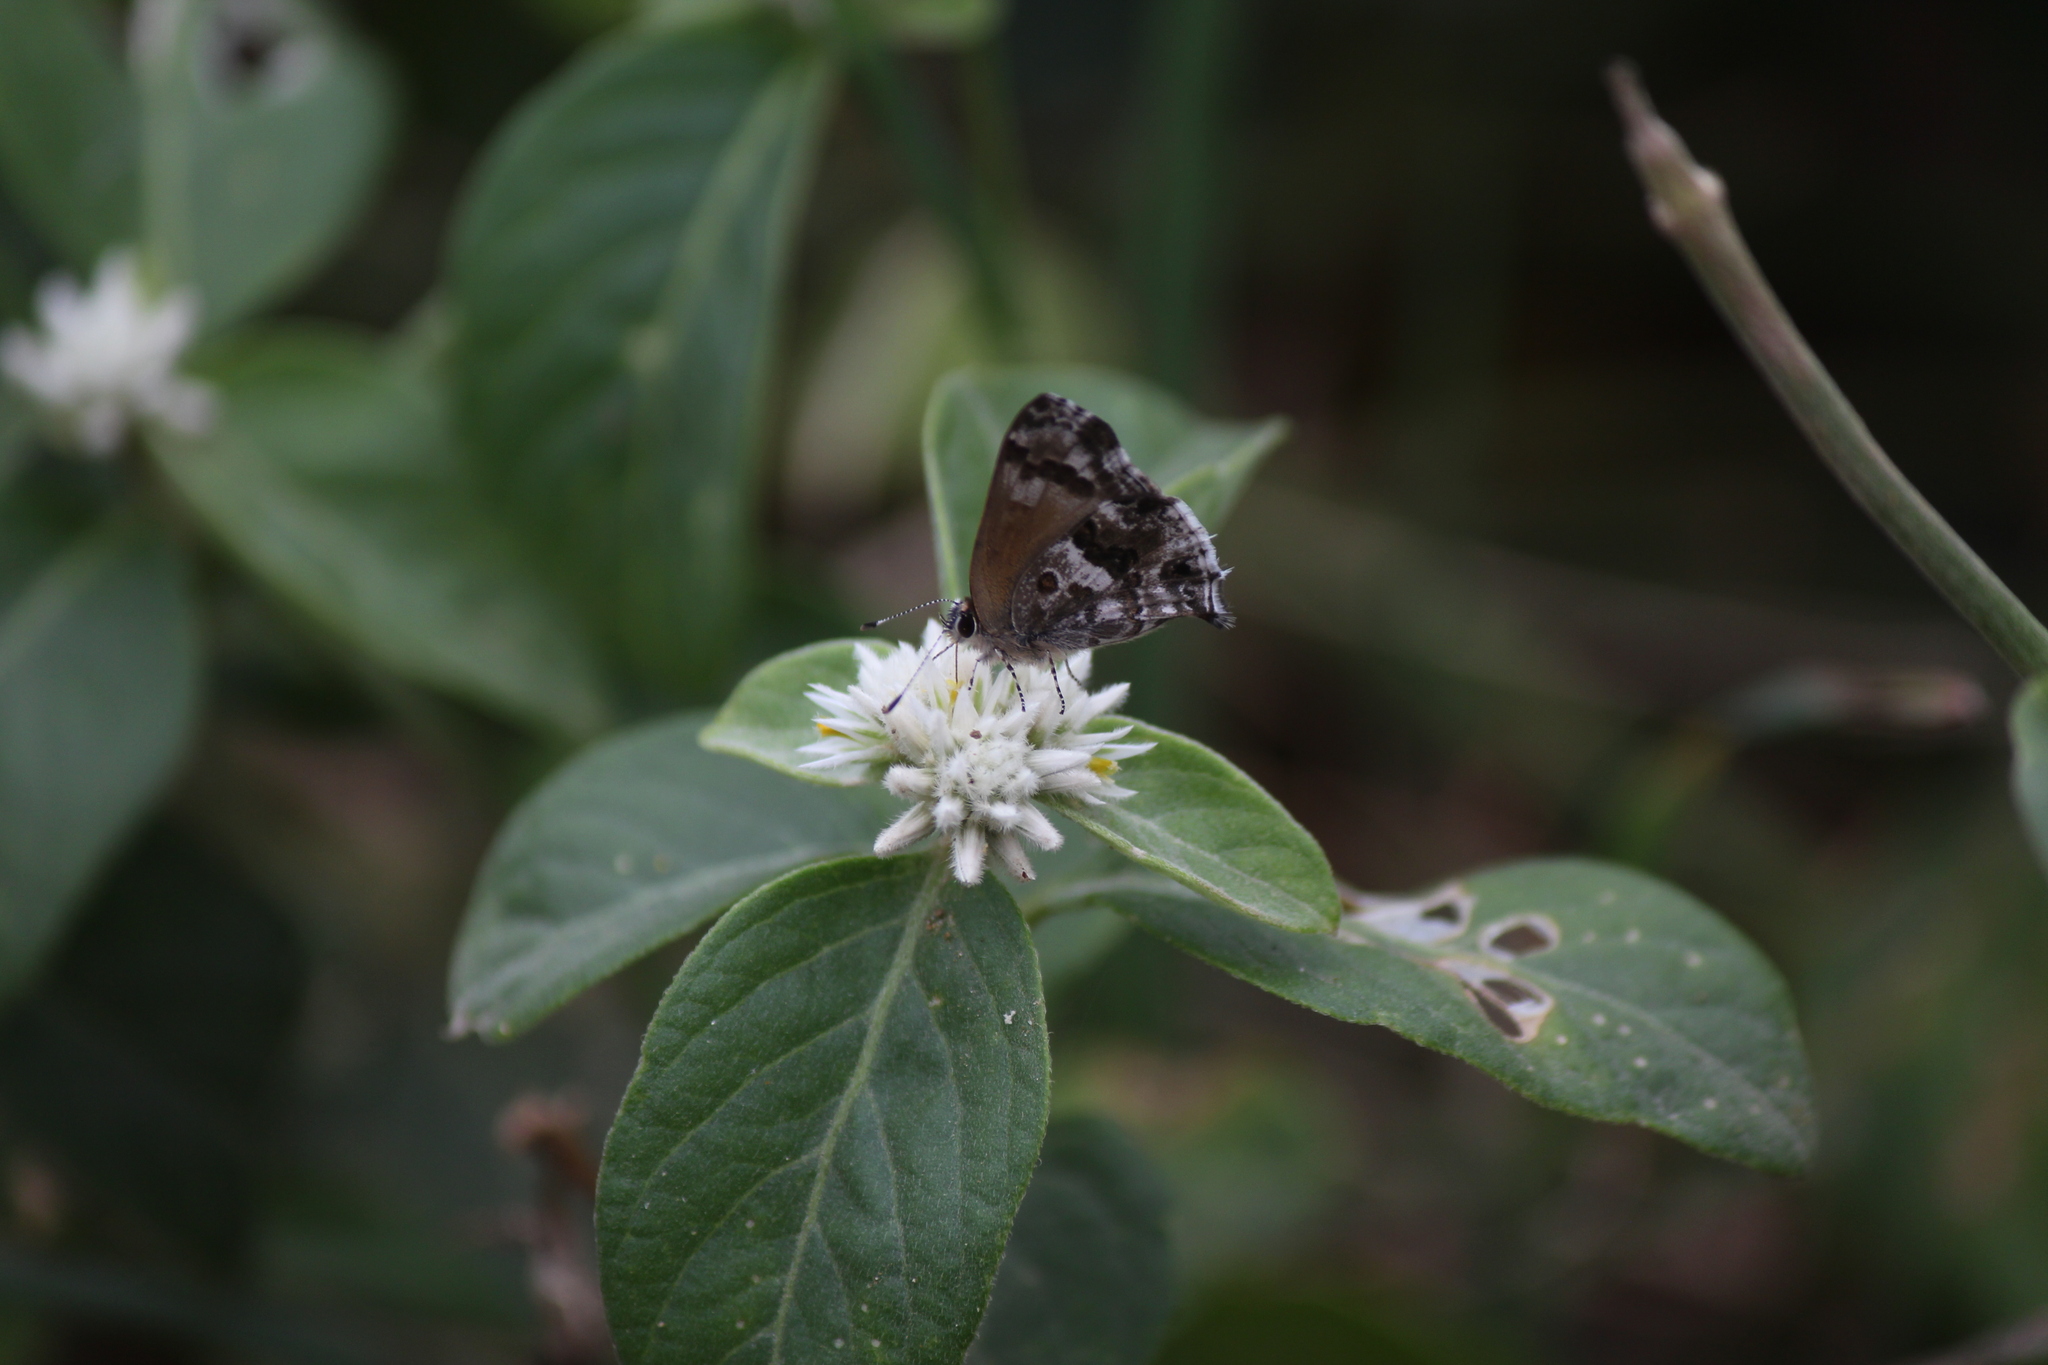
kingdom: Animalia
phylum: Arthropoda
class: Insecta
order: Lepidoptera
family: Lycaenidae
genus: Strymon
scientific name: Strymon
